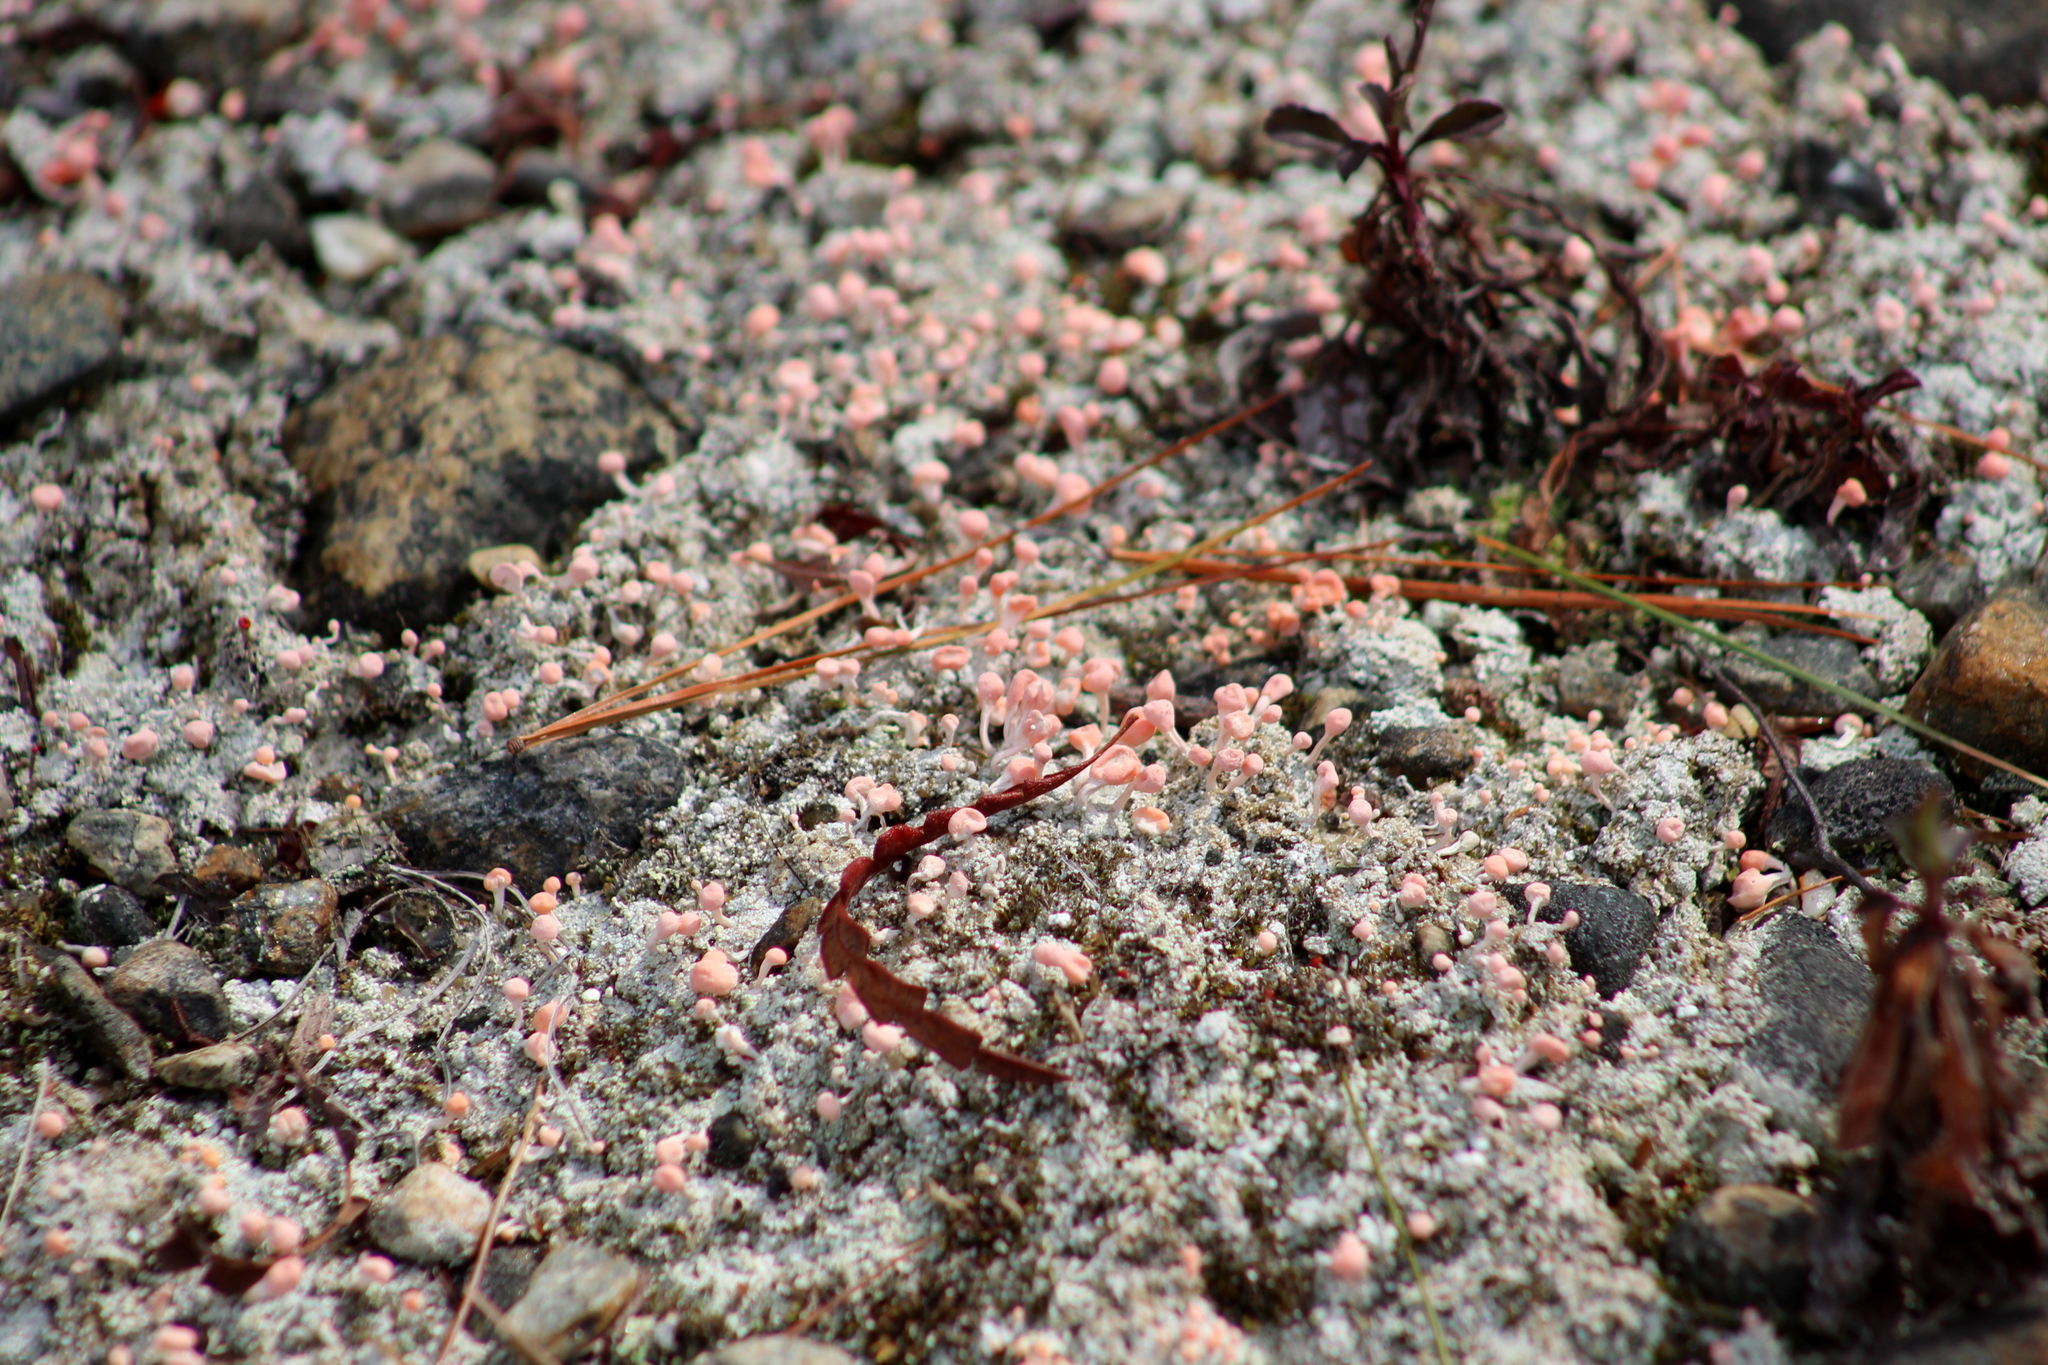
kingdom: Fungi
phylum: Ascomycota
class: Lecanoromycetes
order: Pertusariales
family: Icmadophilaceae
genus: Dibaeis
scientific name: Dibaeis baeomyces
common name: Pink earth lichen
